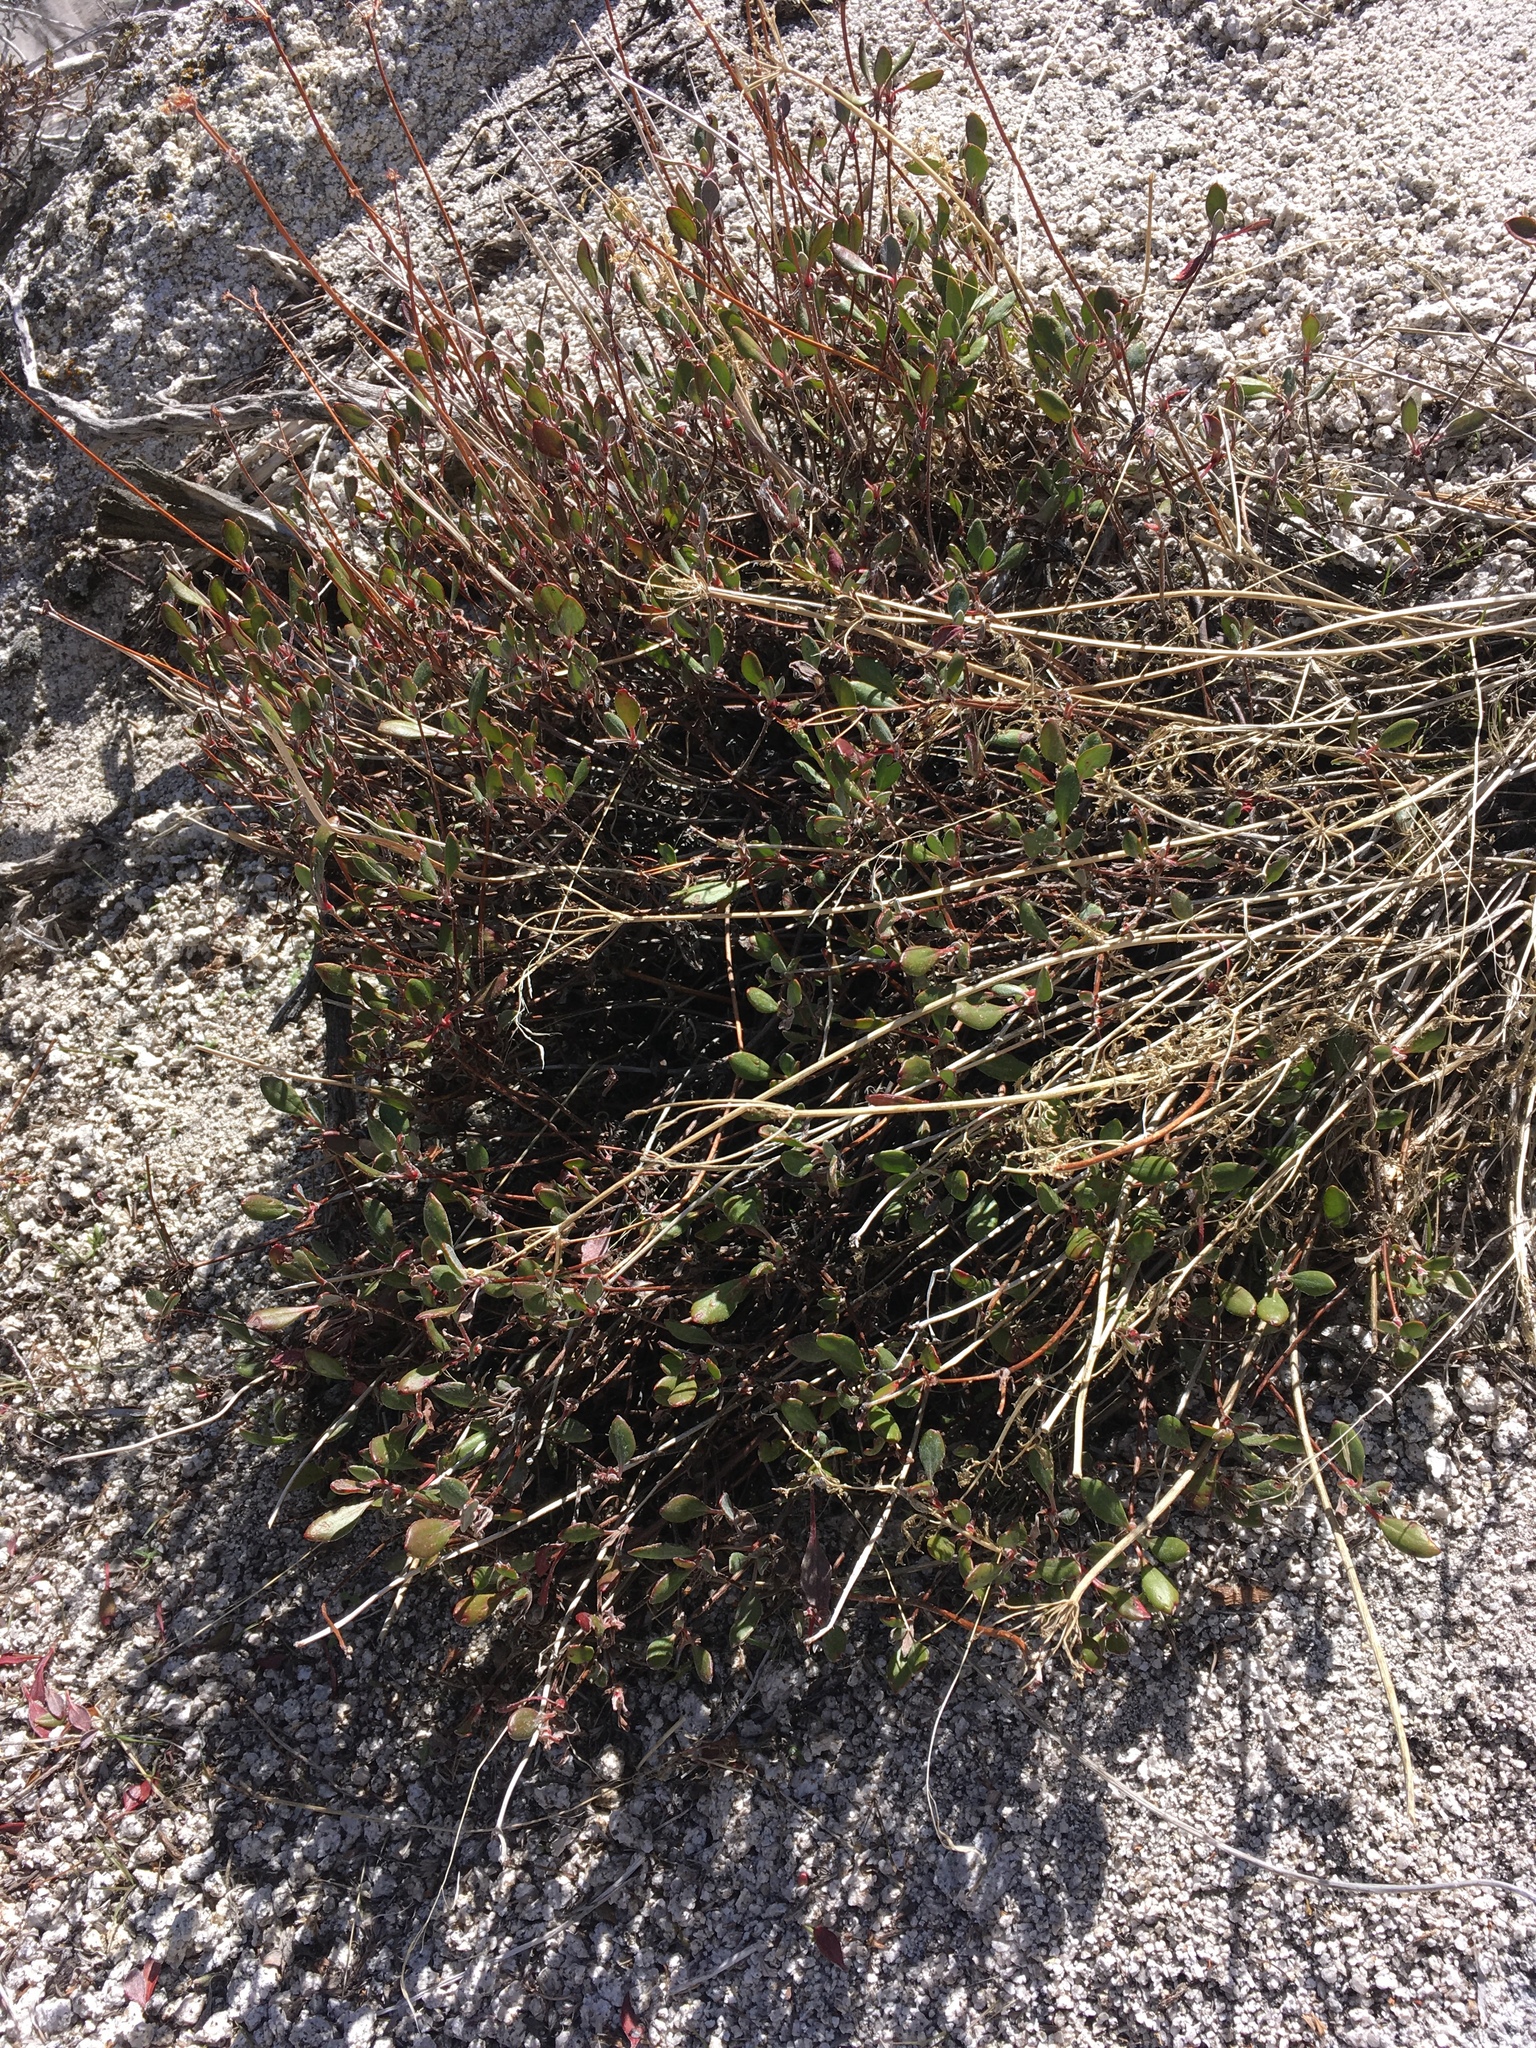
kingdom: Plantae
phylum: Tracheophyta
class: Magnoliopsida
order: Caryophyllales
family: Polygonaceae
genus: Eriogonum
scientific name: Eriogonum umbellatum
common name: Sulfur-buckwheat
